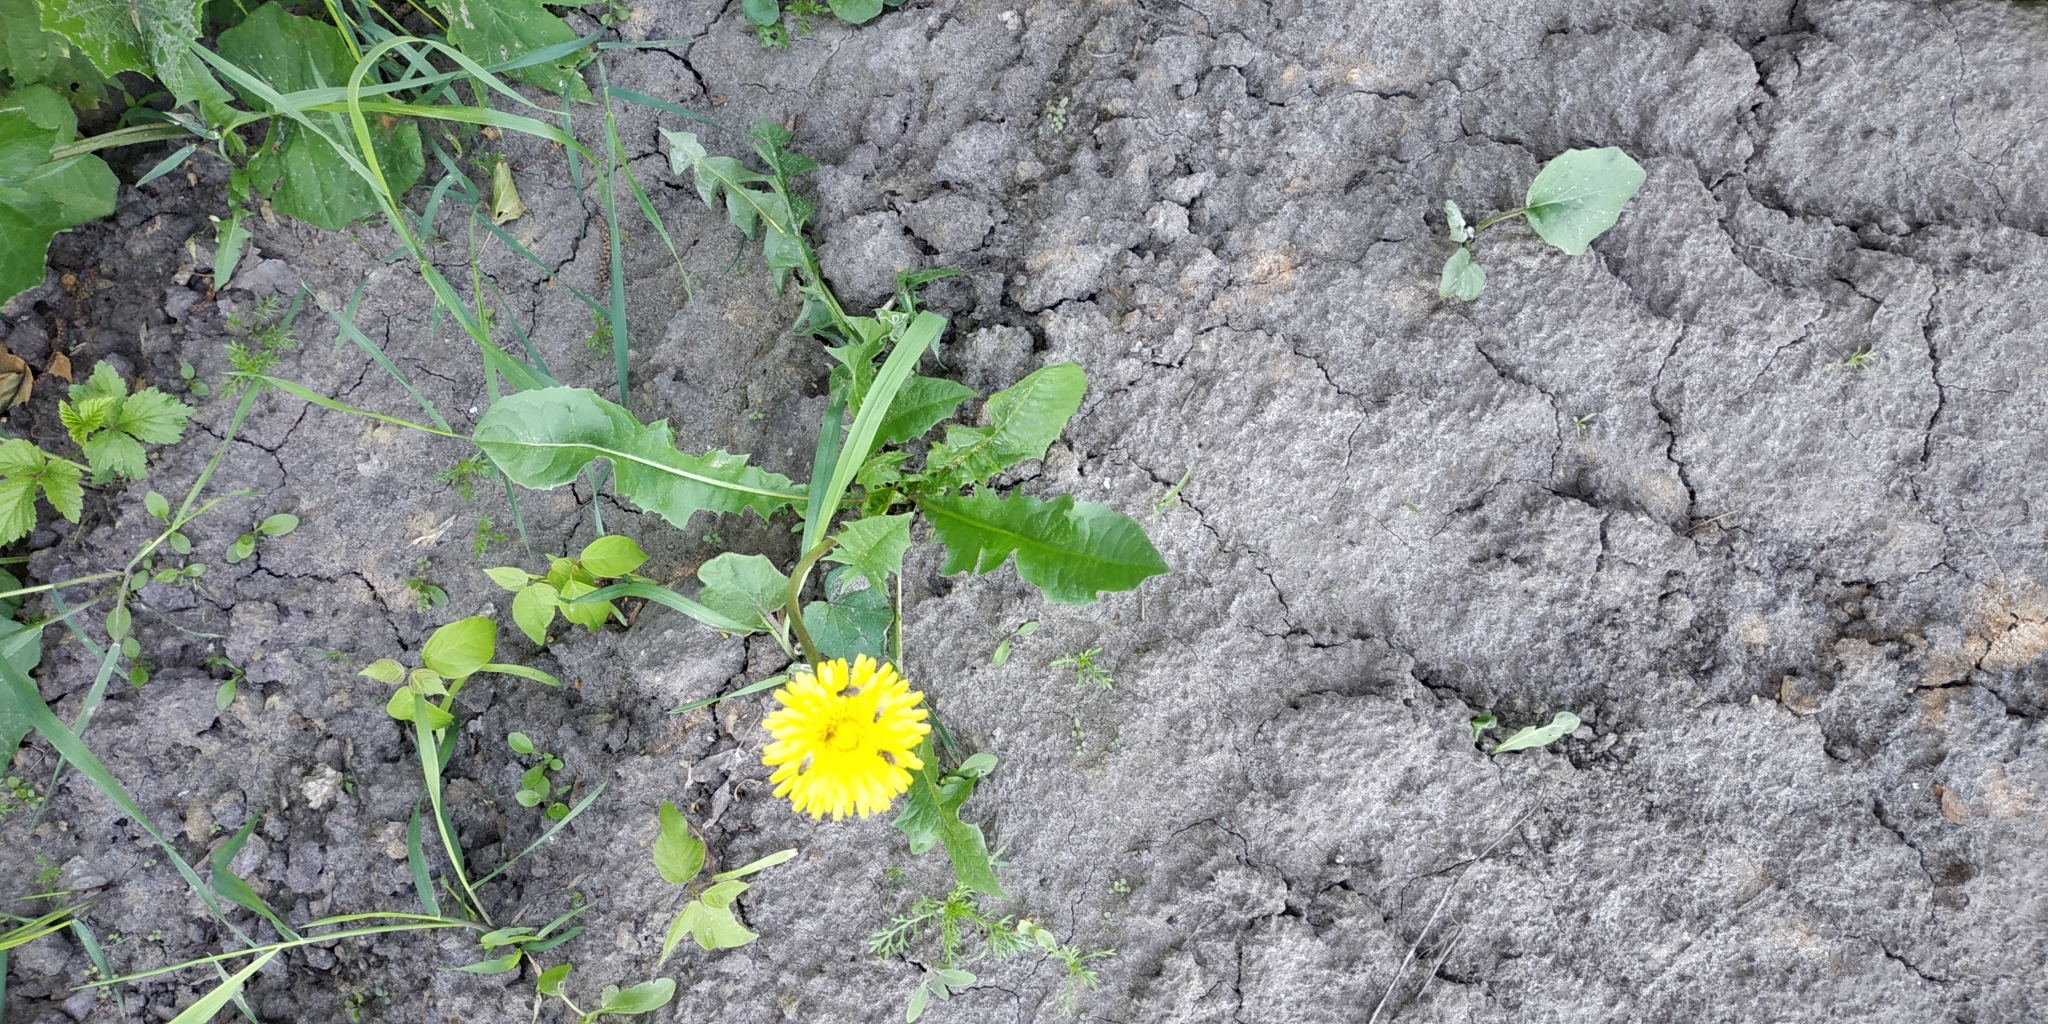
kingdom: Plantae
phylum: Tracheophyta
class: Magnoliopsida
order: Asterales
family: Asteraceae
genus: Taraxacum
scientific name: Taraxacum officinale
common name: Common dandelion
